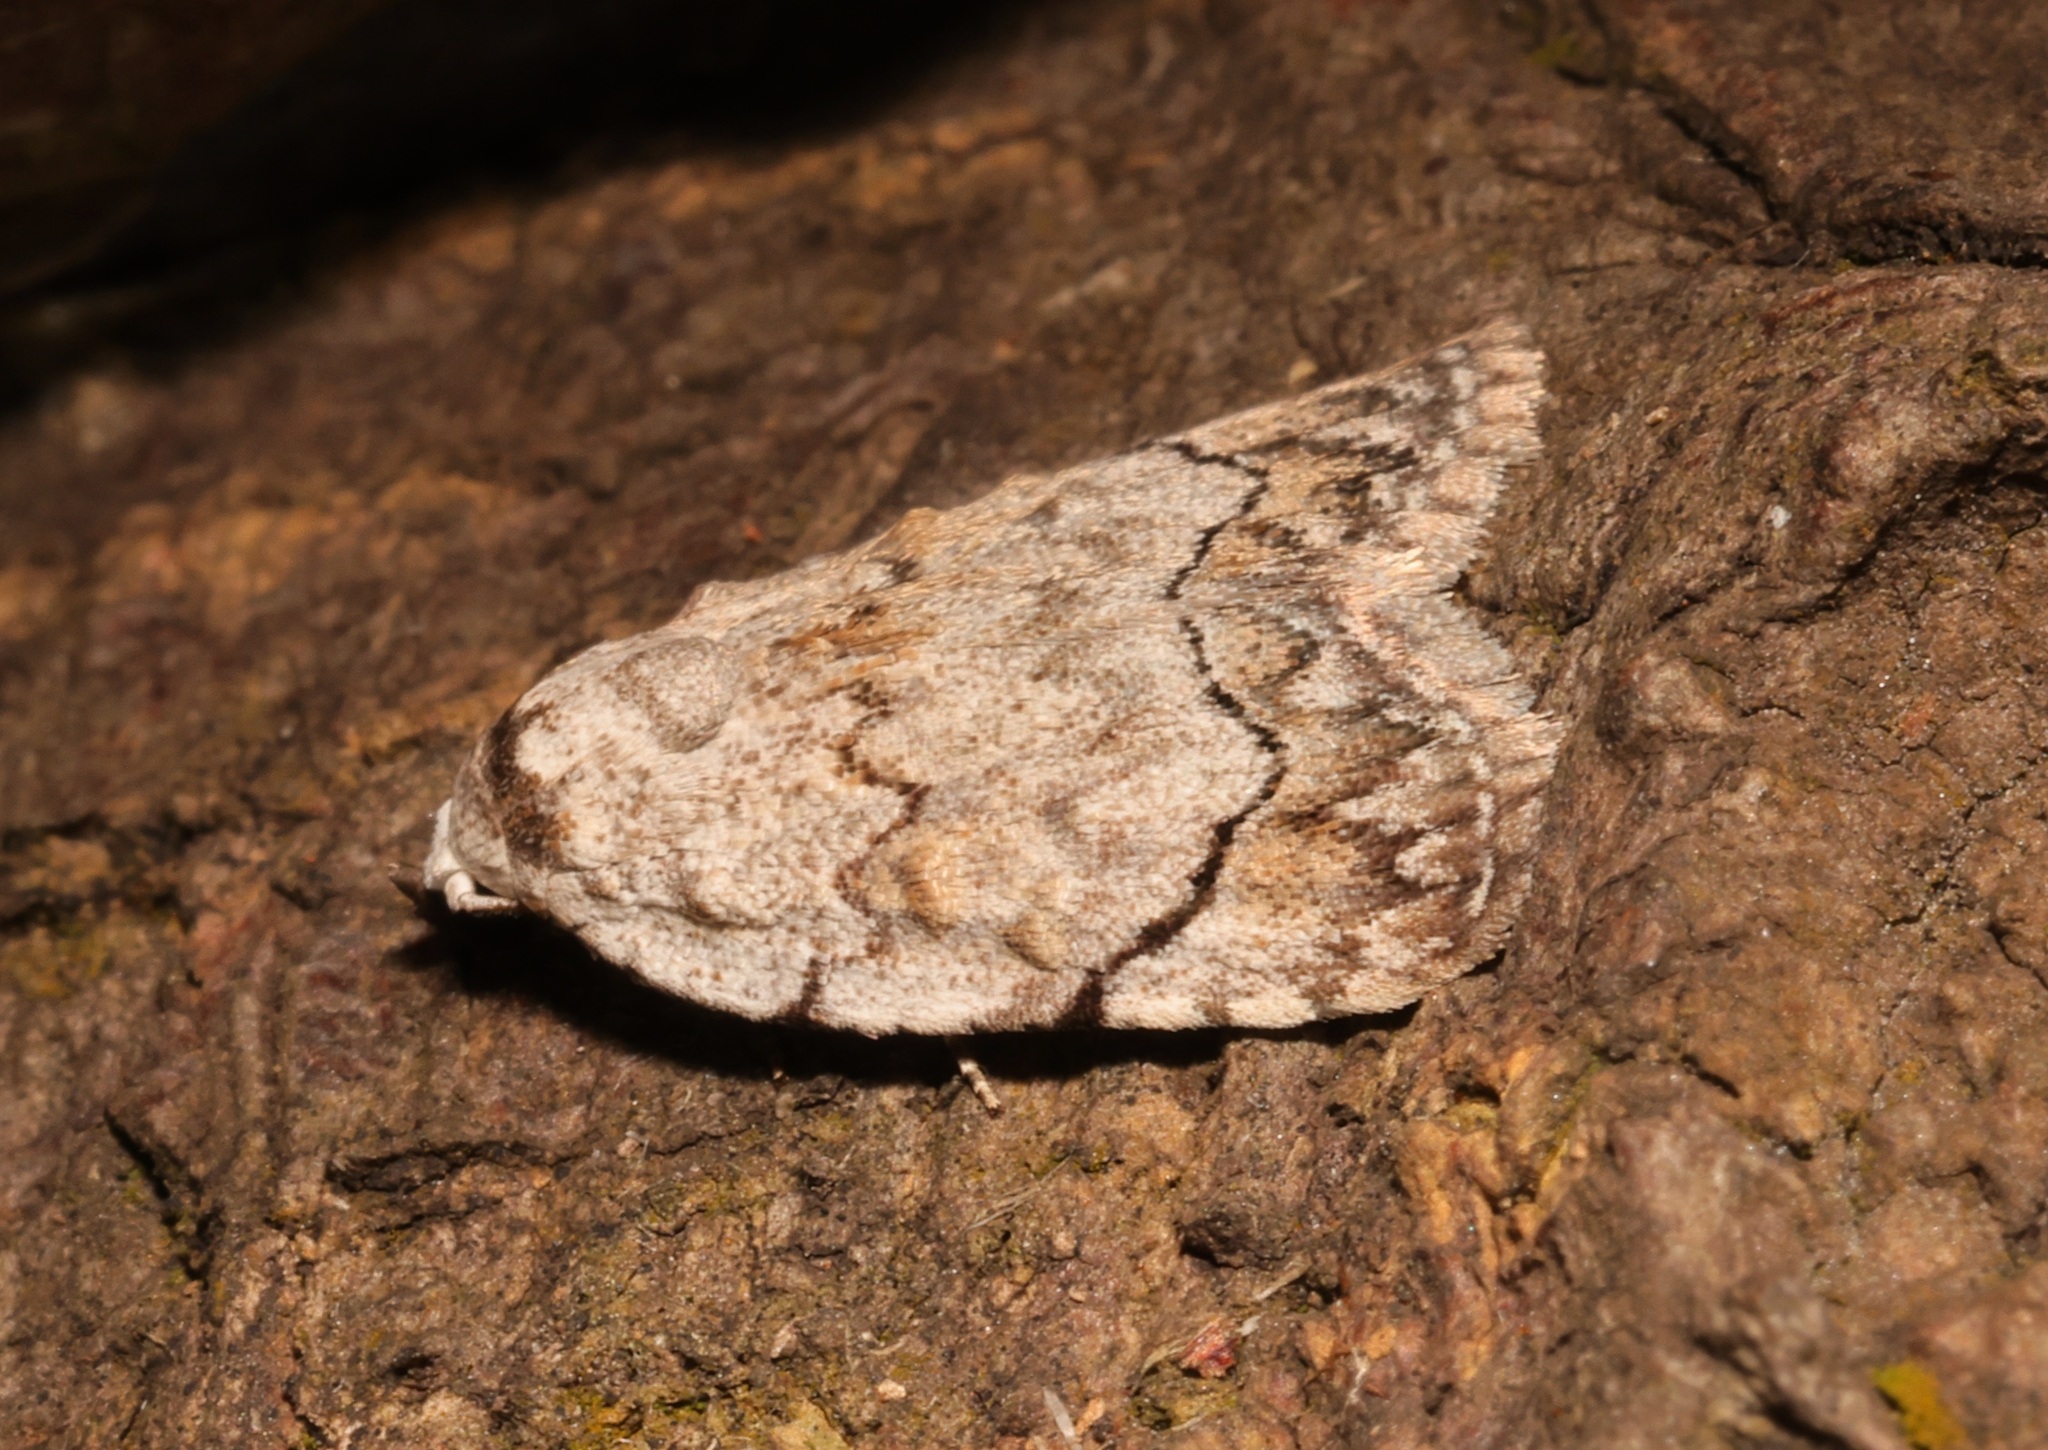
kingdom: Animalia
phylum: Arthropoda
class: Insecta
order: Lepidoptera
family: Nolidae
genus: Melanographia
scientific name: Melanographia flexilineata
